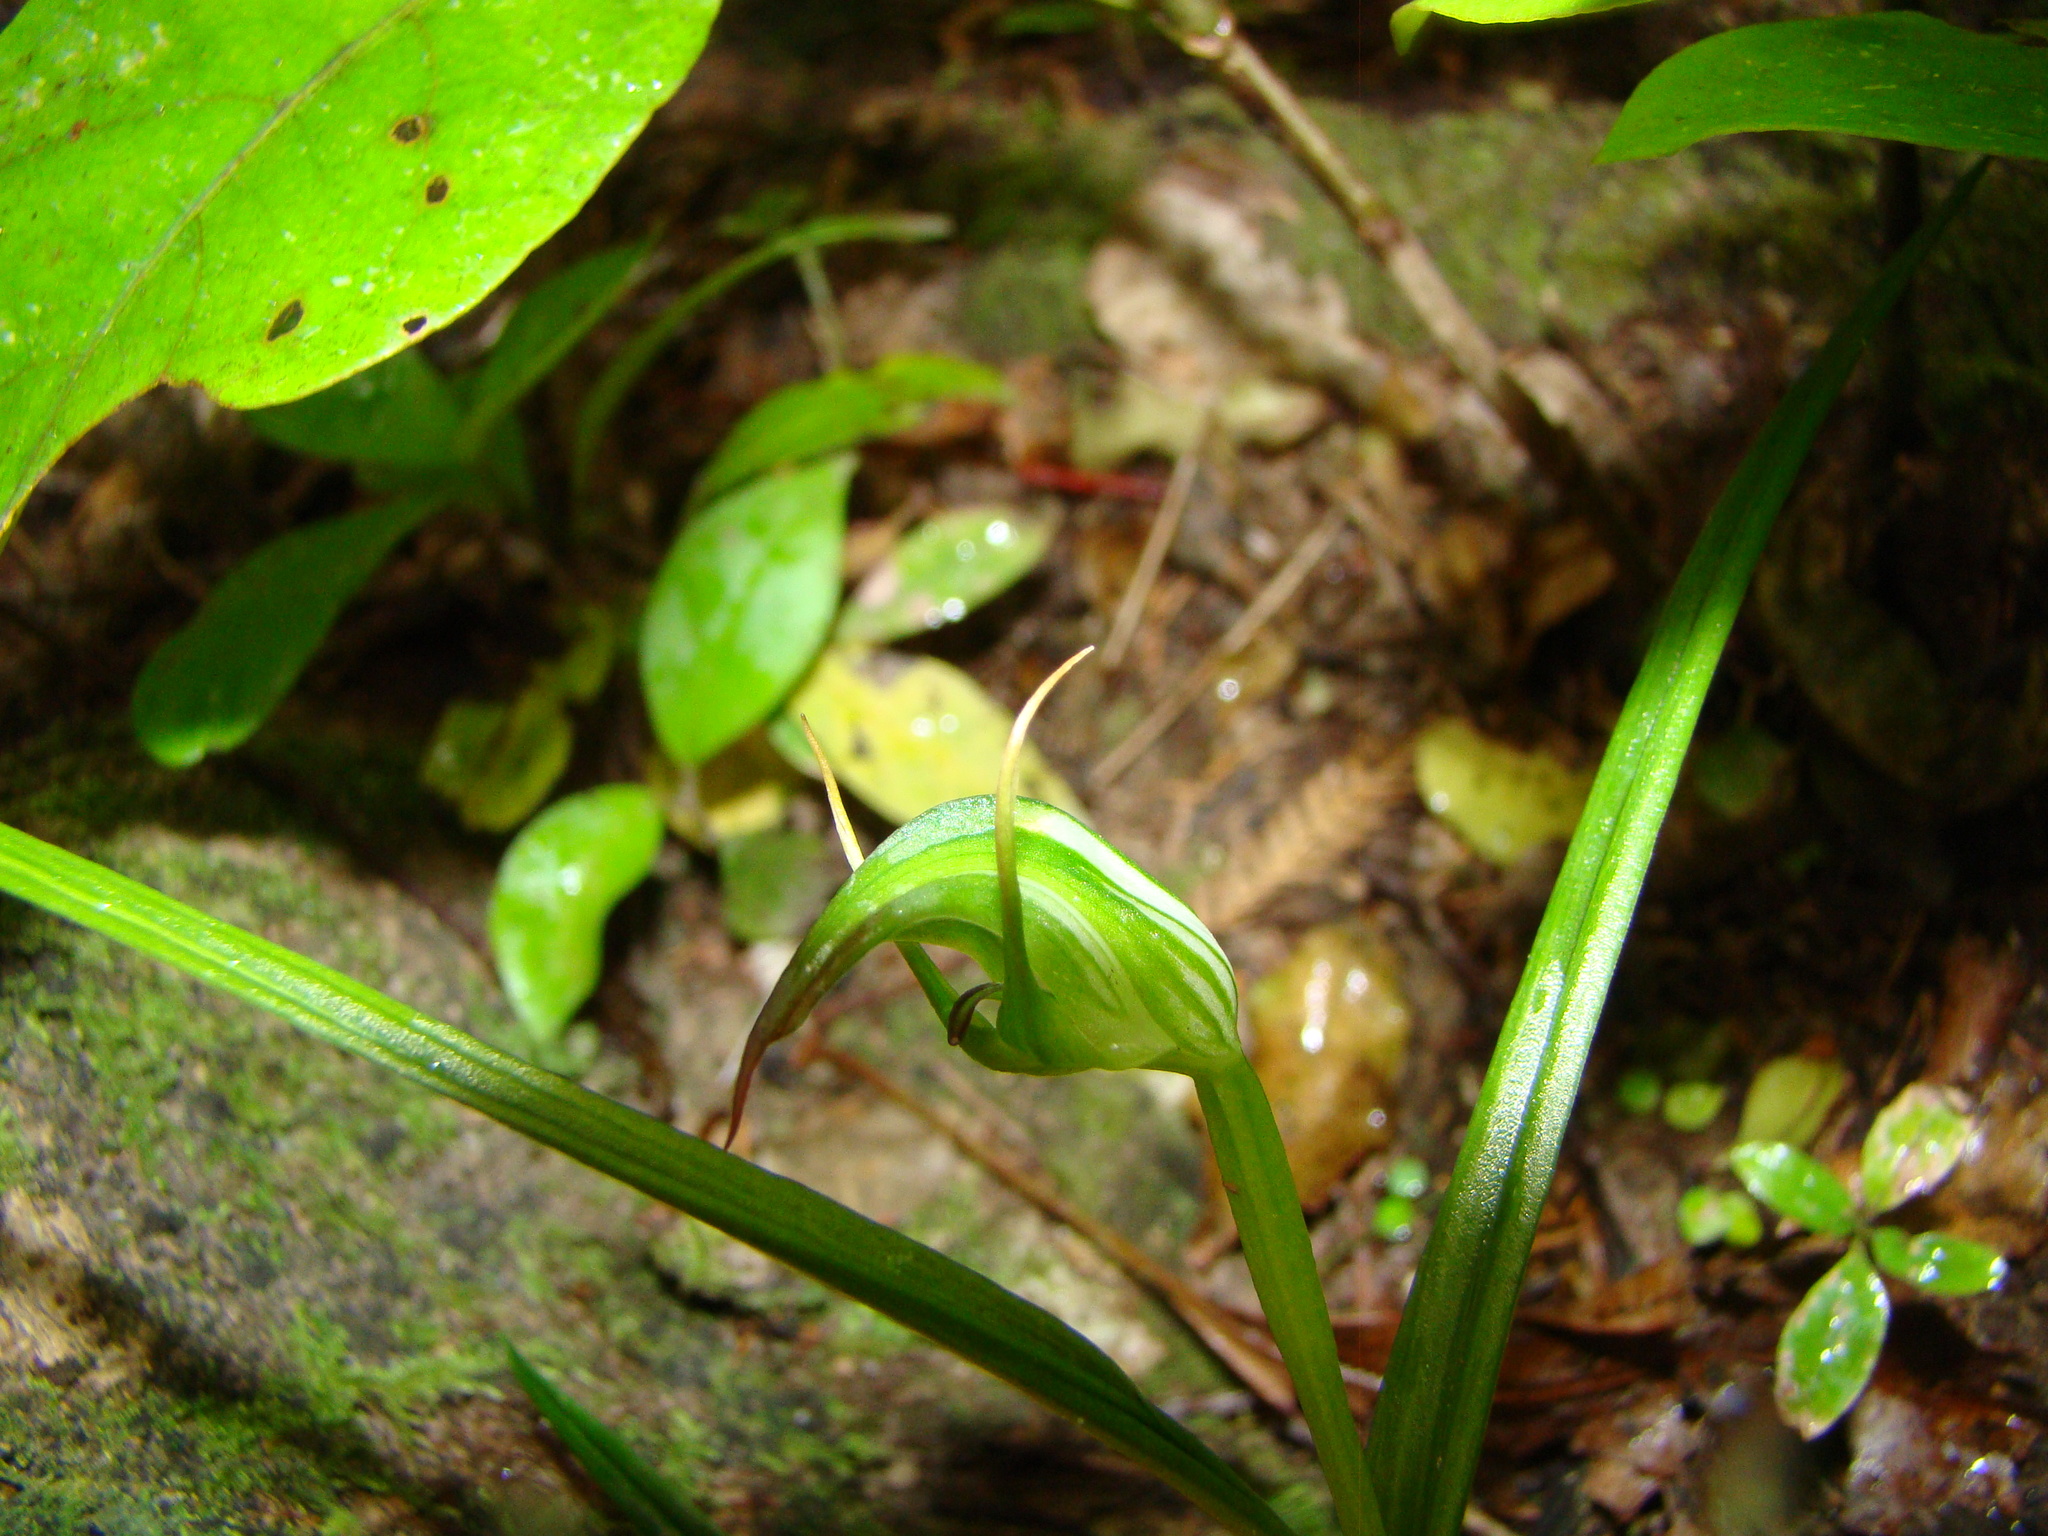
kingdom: Plantae
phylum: Tracheophyta
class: Liliopsida
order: Asparagales
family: Orchidaceae
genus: Pterostylis
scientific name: Pterostylis graminea
